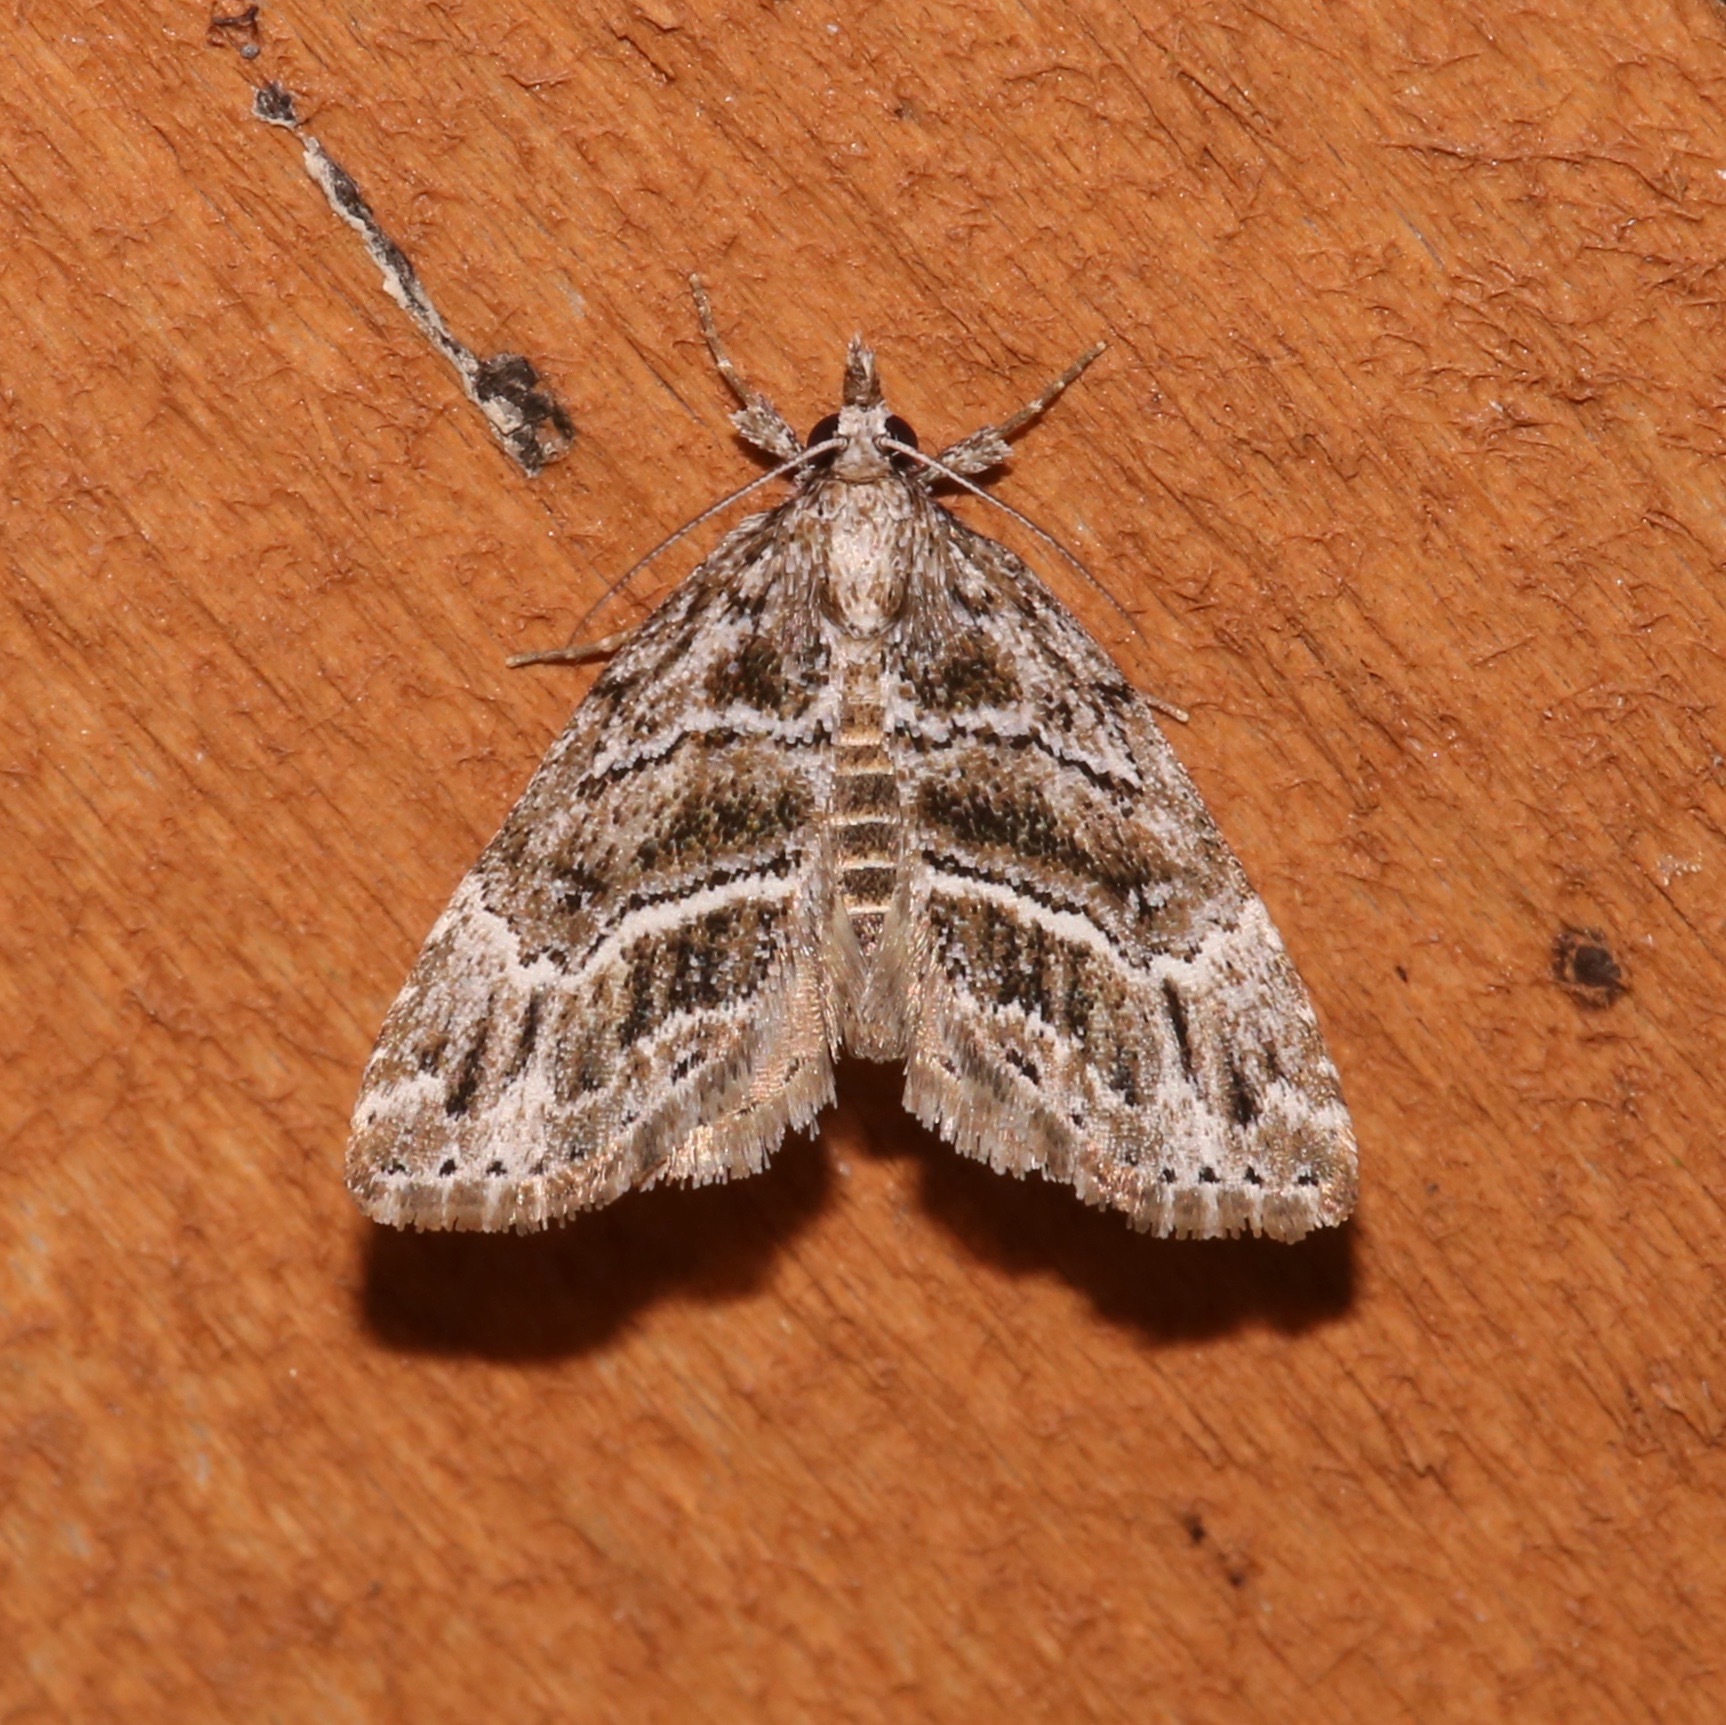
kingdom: Animalia
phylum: Arthropoda
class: Insecta
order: Lepidoptera
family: Erebidae
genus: Cutina
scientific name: Cutina arcuata
